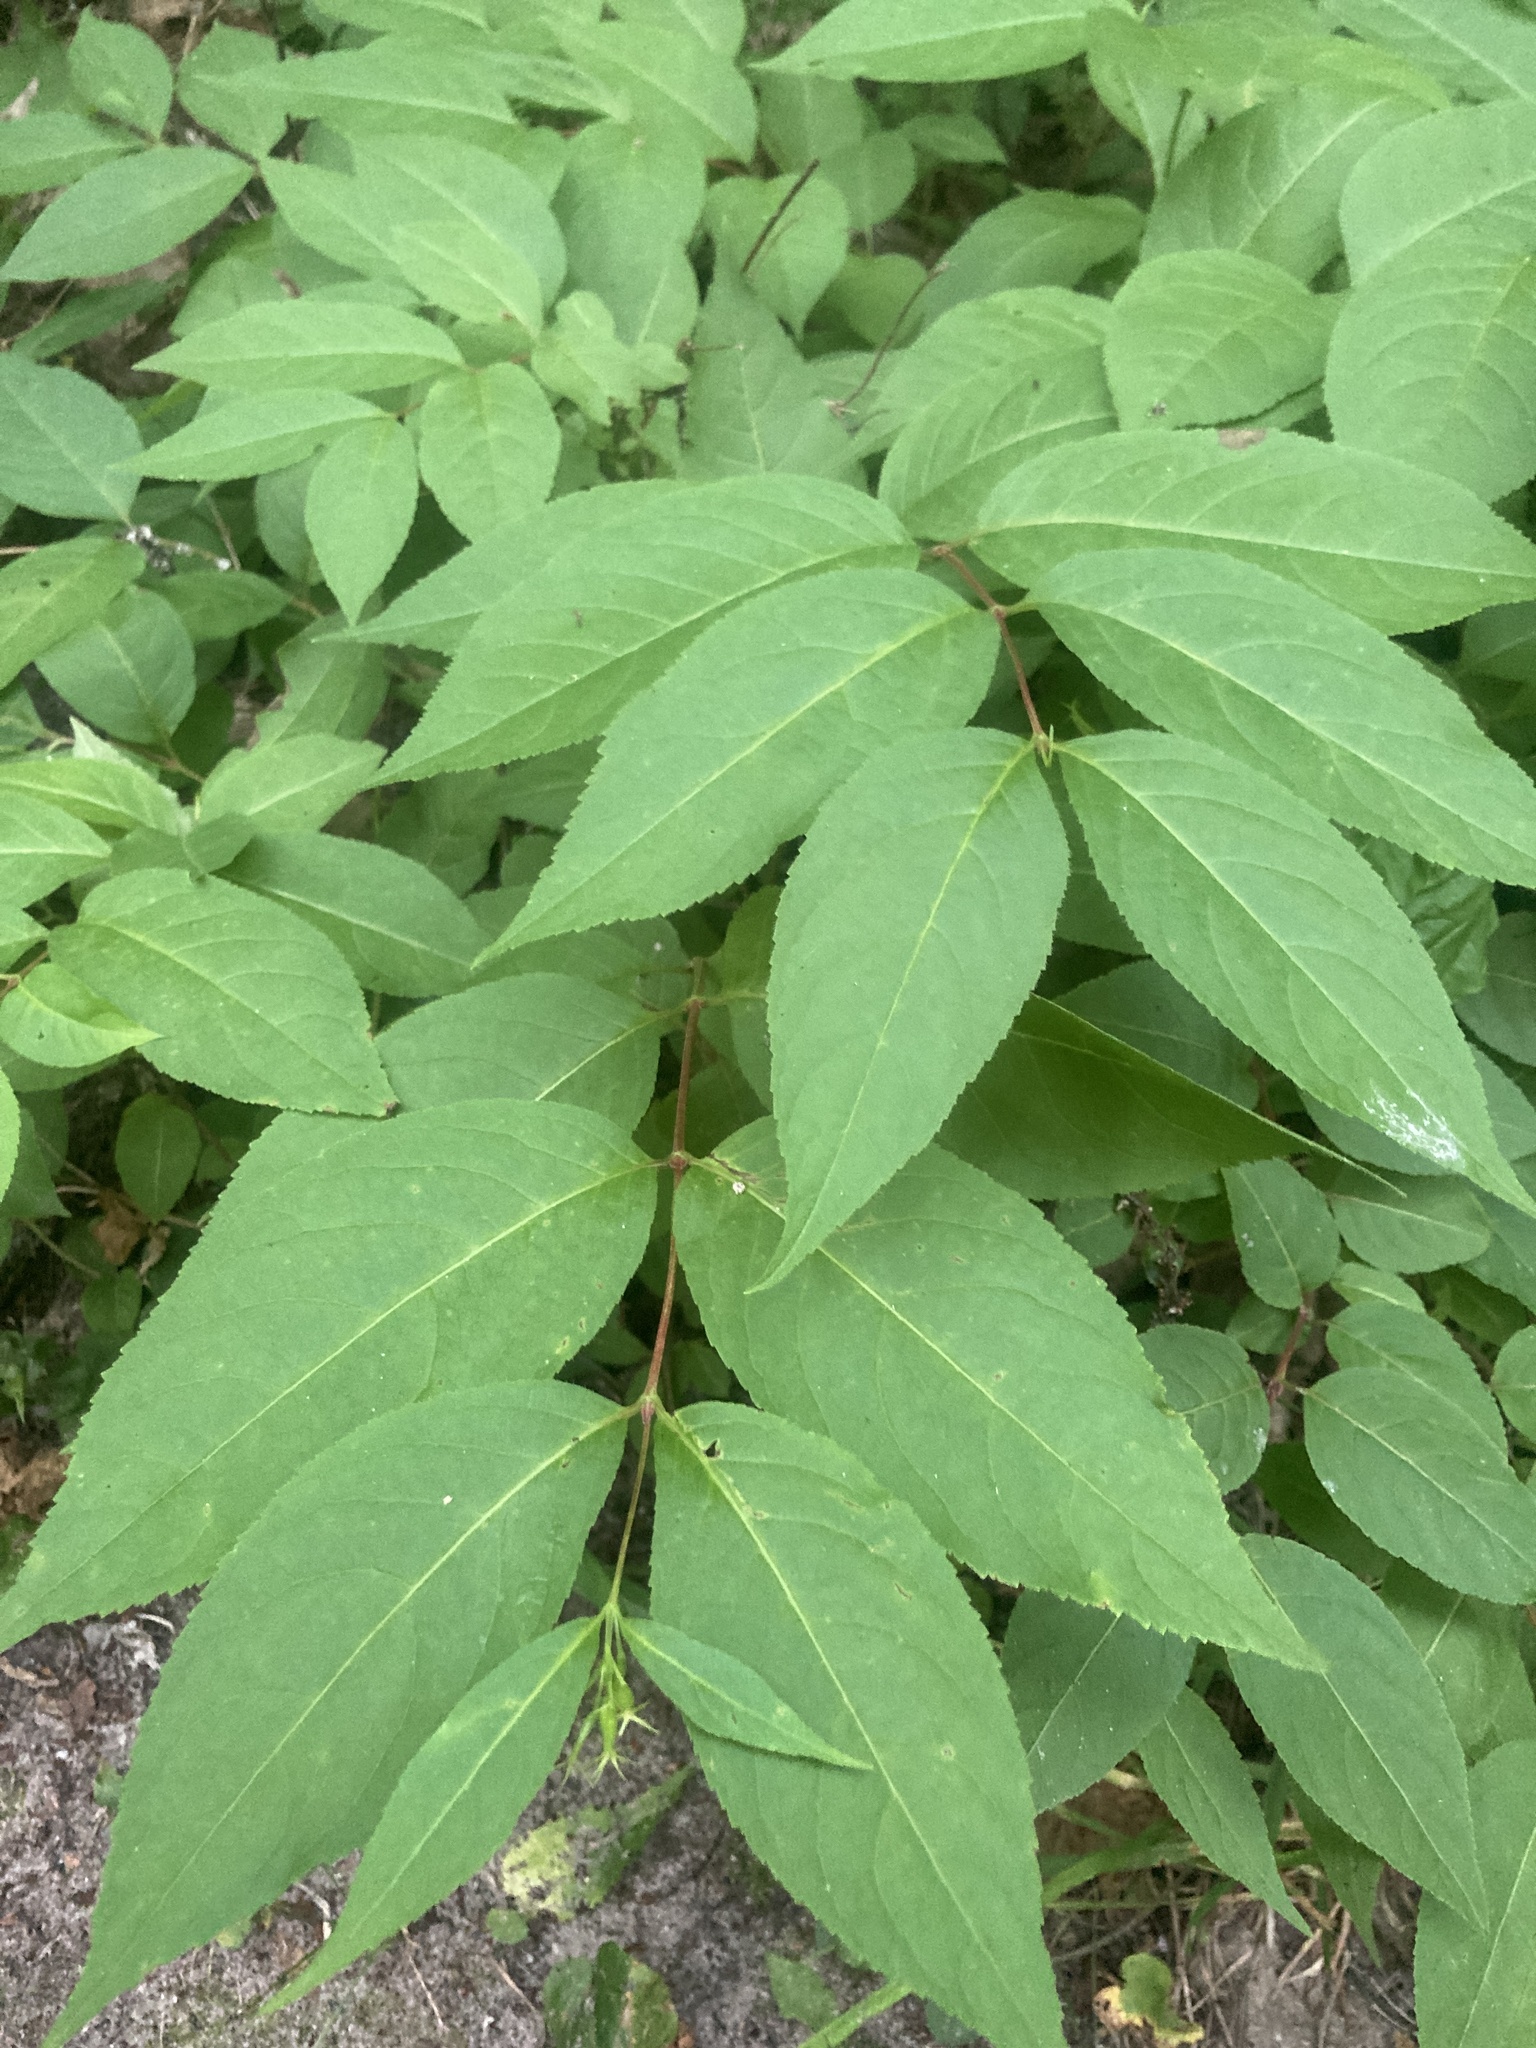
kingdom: Plantae
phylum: Tracheophyta
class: Magnoliopsida
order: Dipsacales
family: Caprifoliaceae
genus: Diervilla
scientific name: Diervilla lonicera
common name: Bush-honeysuckle
